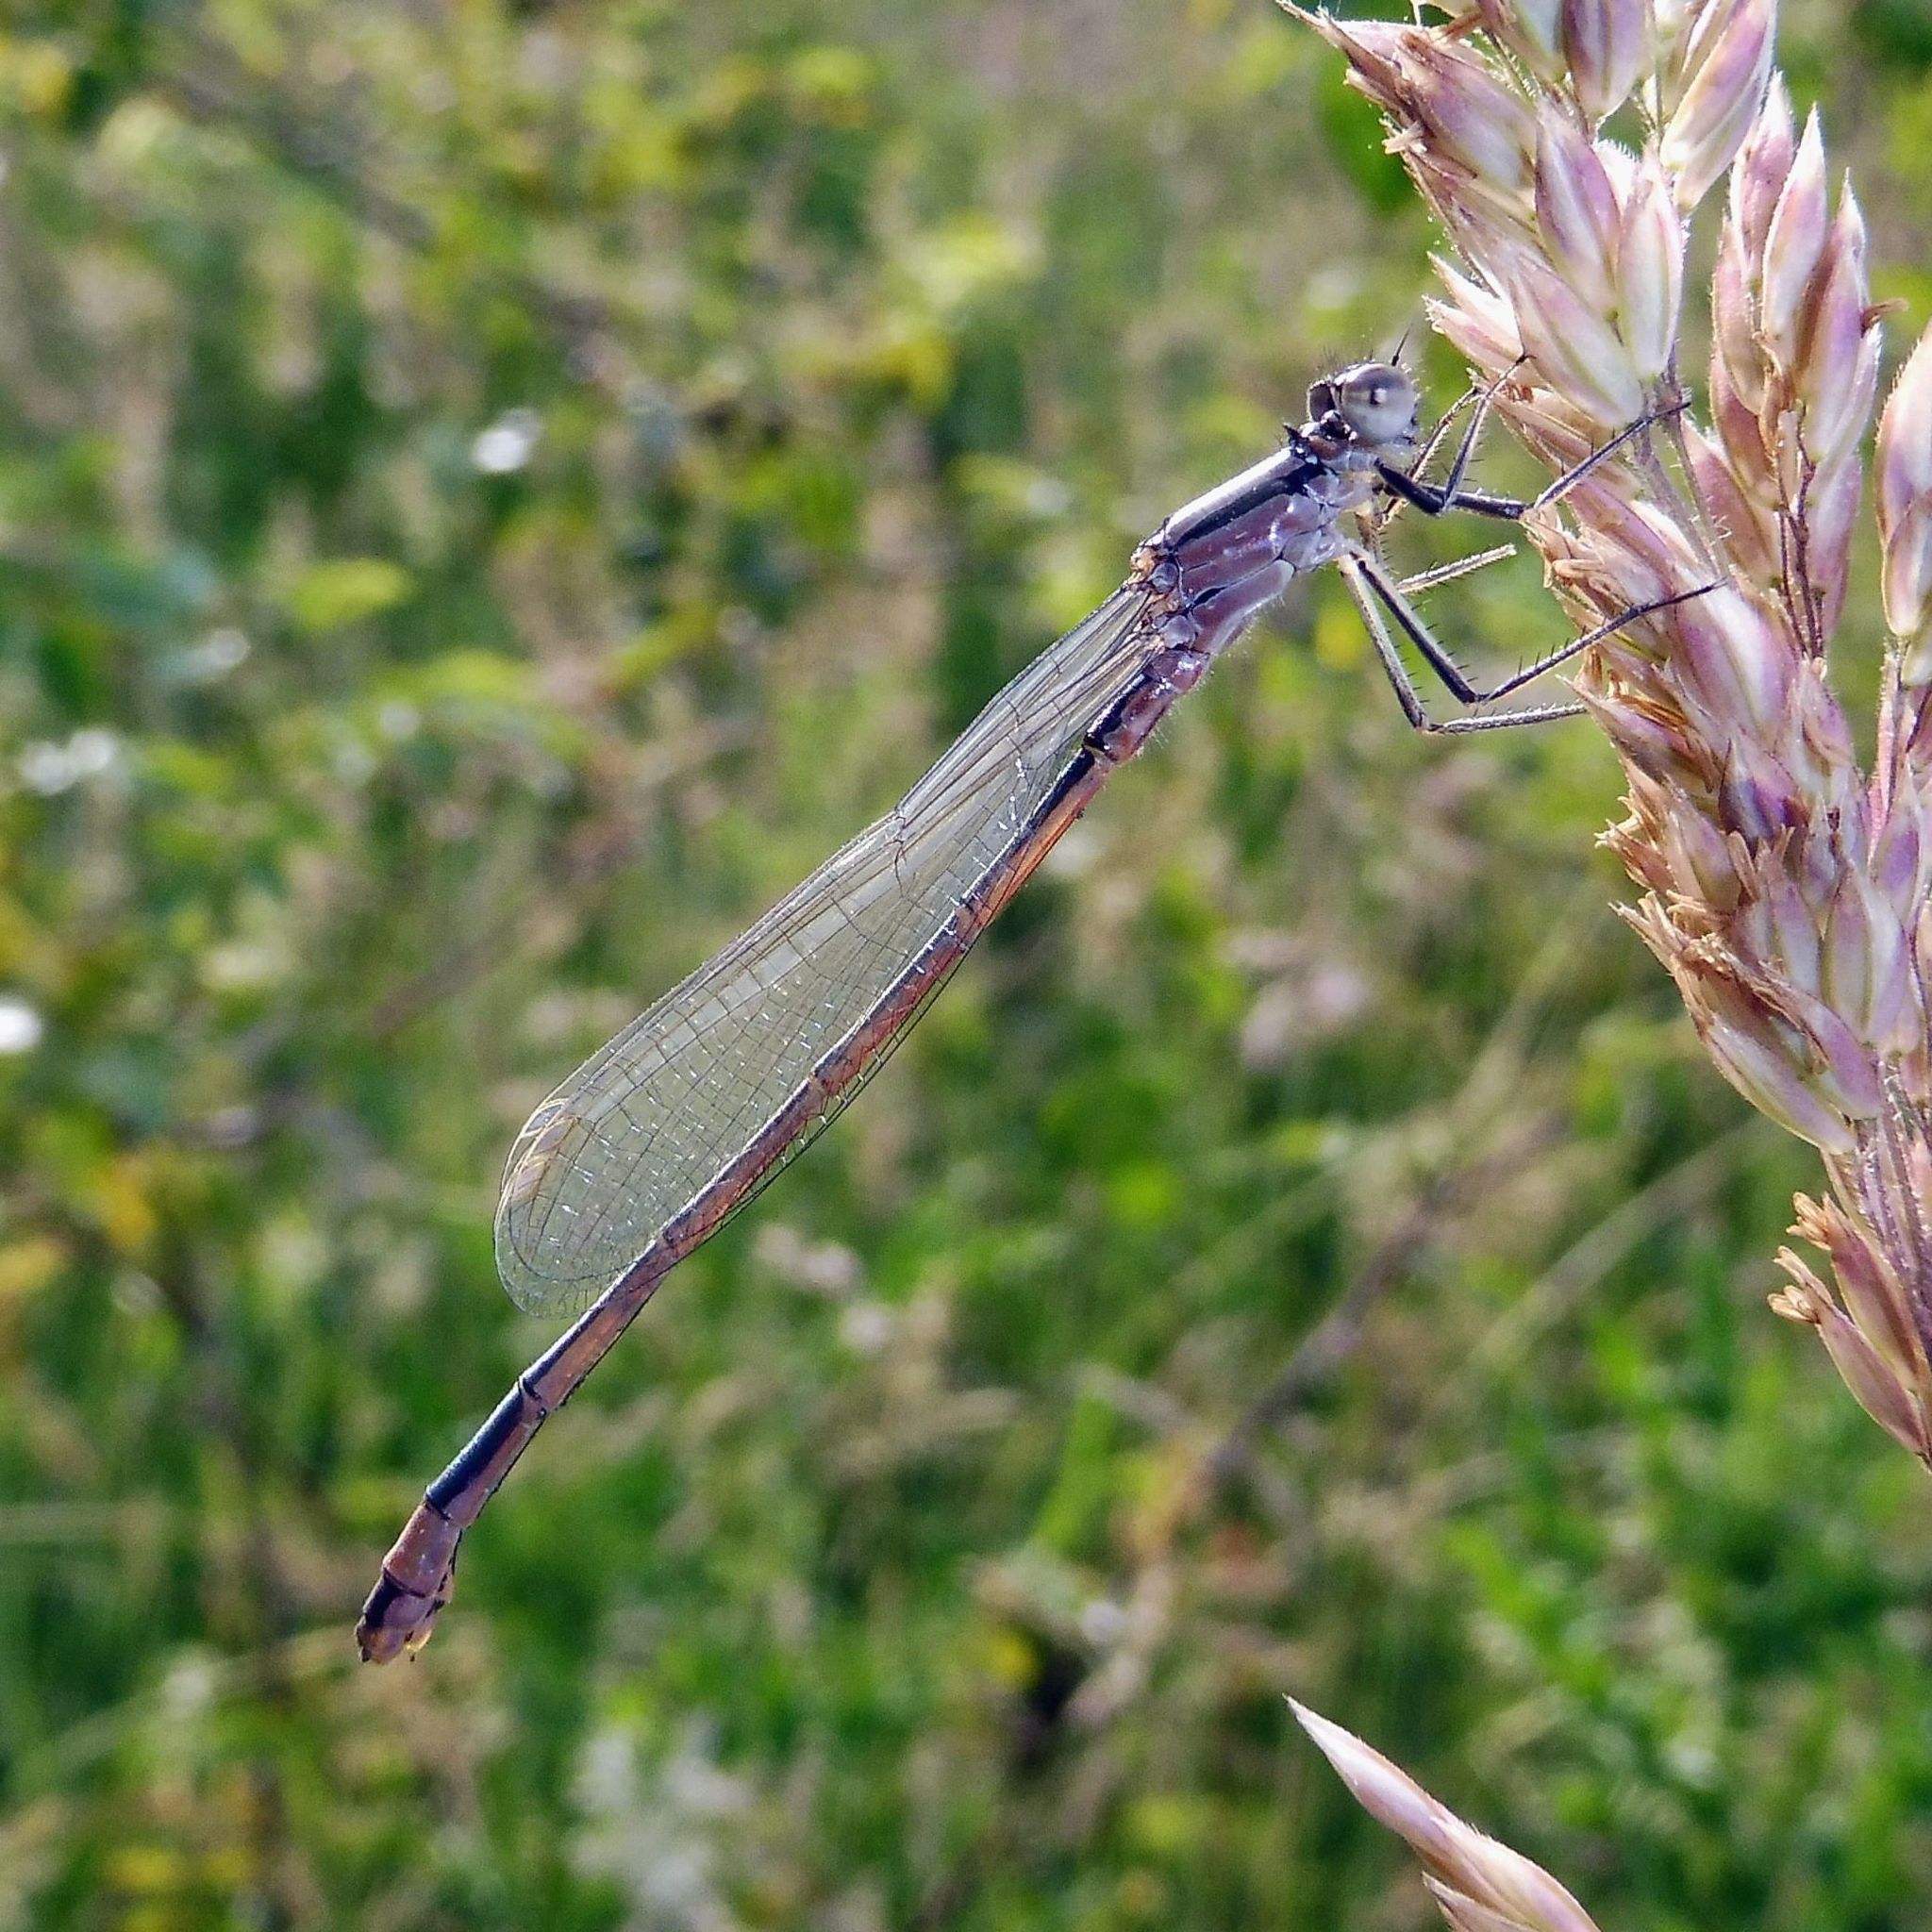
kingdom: Animalia
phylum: Arthropoda
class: Insecta
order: Odonata
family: Coenagrionidae
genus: Ischnura
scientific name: Ischnura elegans
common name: Blue-tailed damselfly
